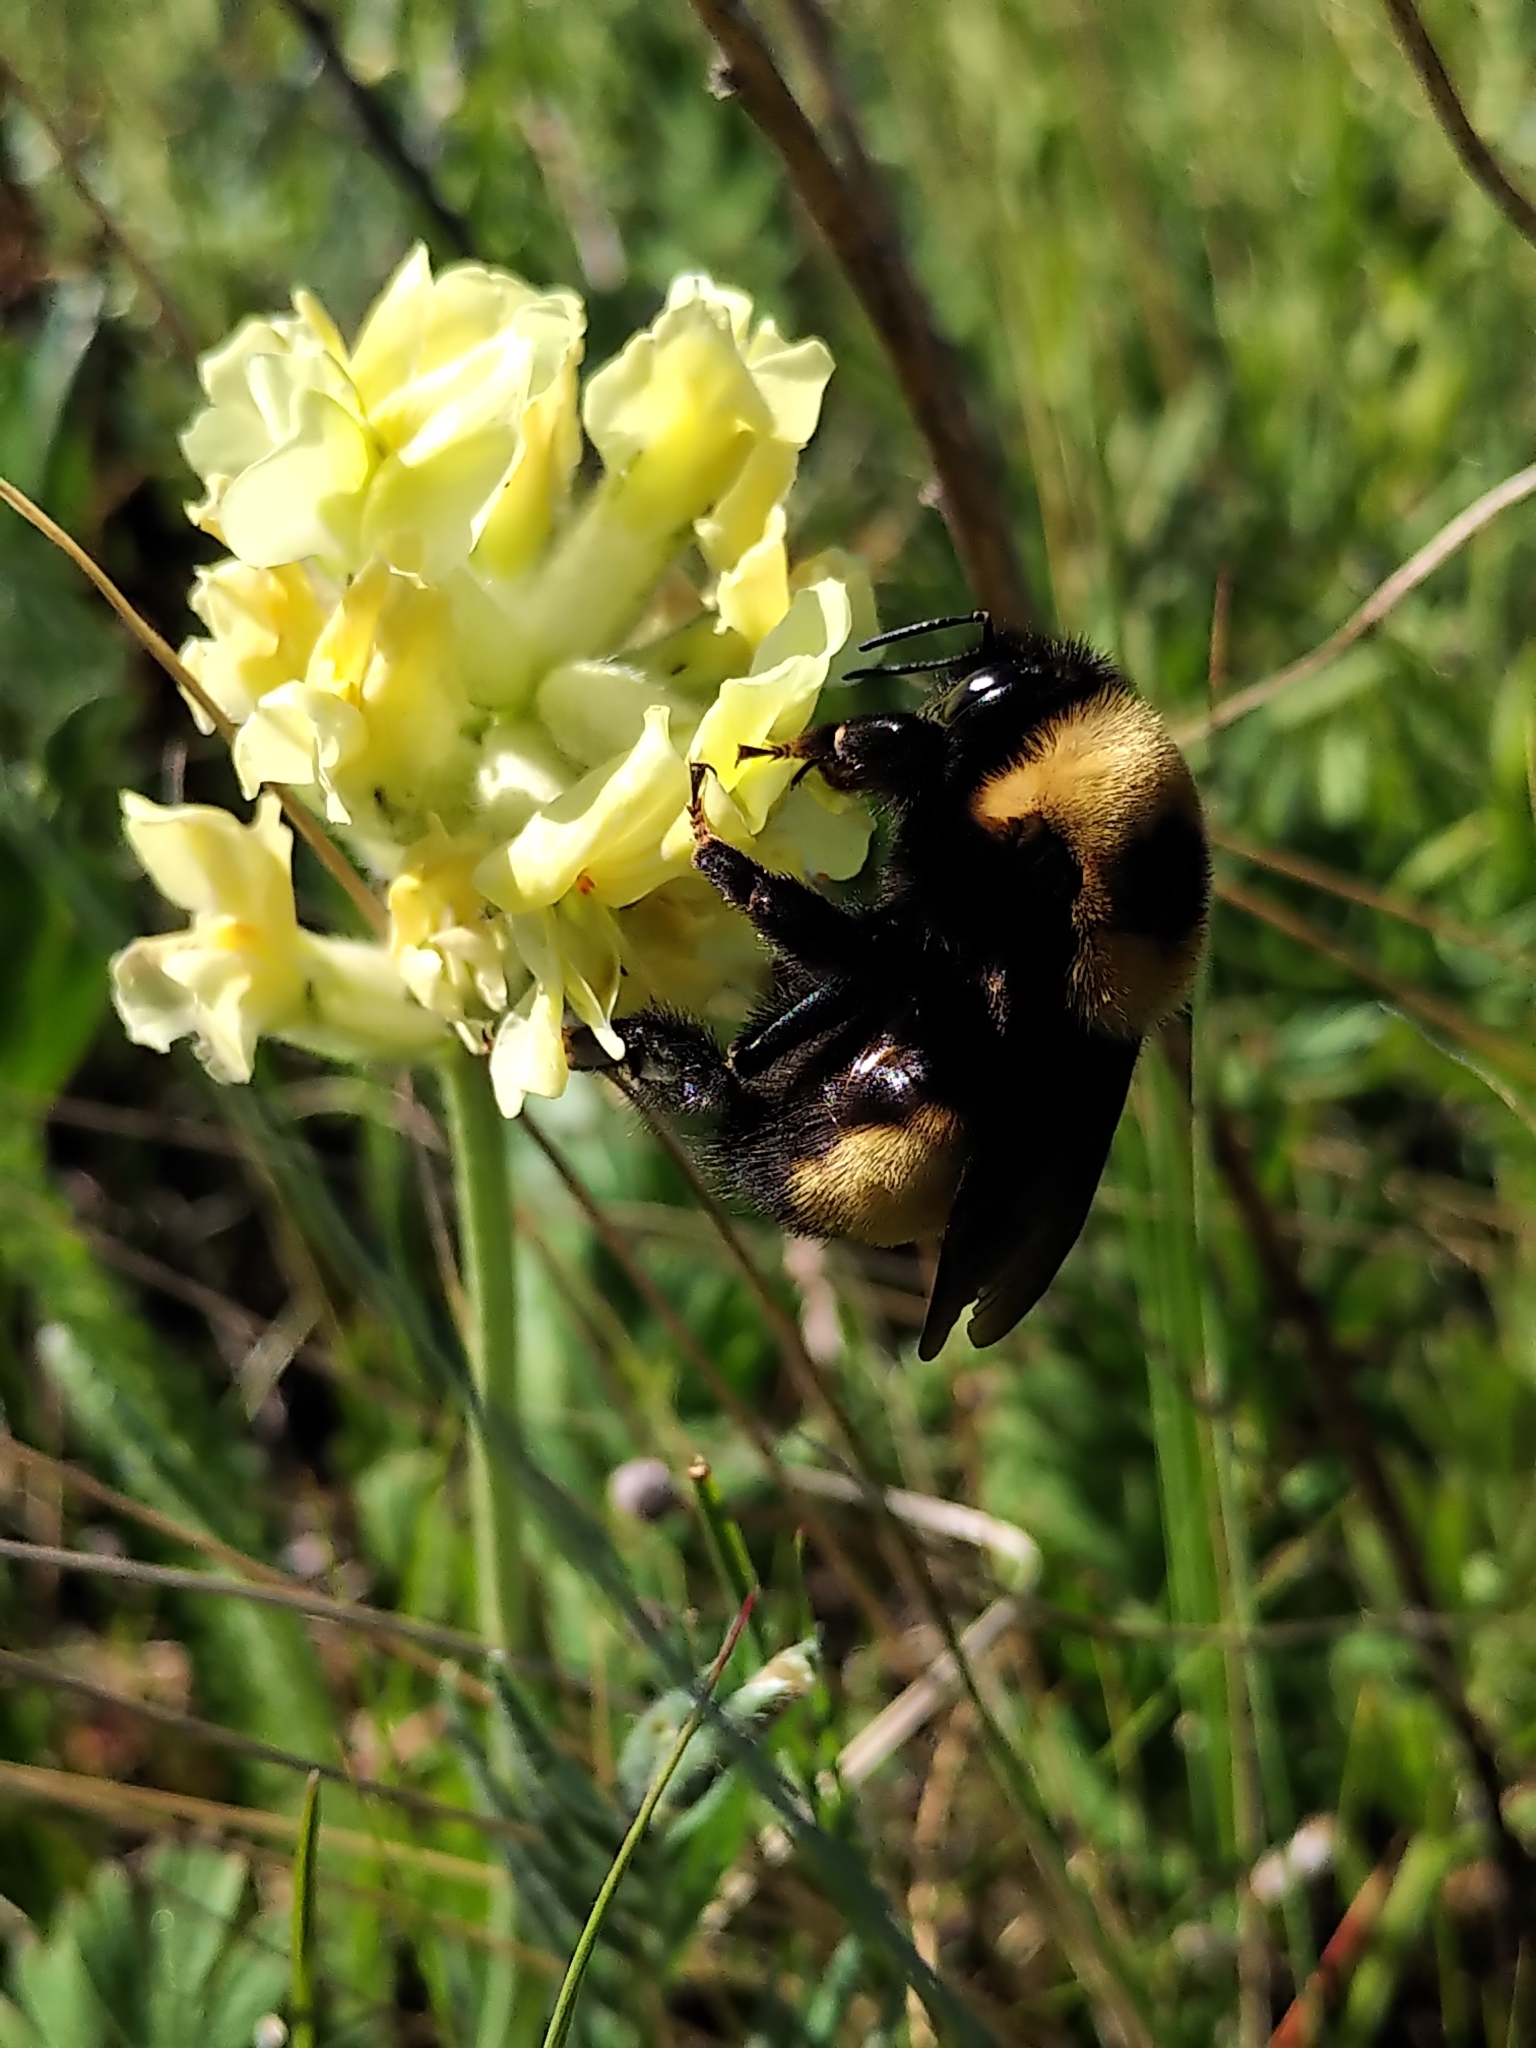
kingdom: Animalia
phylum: Arthropoda
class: Insecta
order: Hymenoptera
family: Apidae
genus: Bombus
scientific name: Bombus nevadensis
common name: Nevada bumble bee
